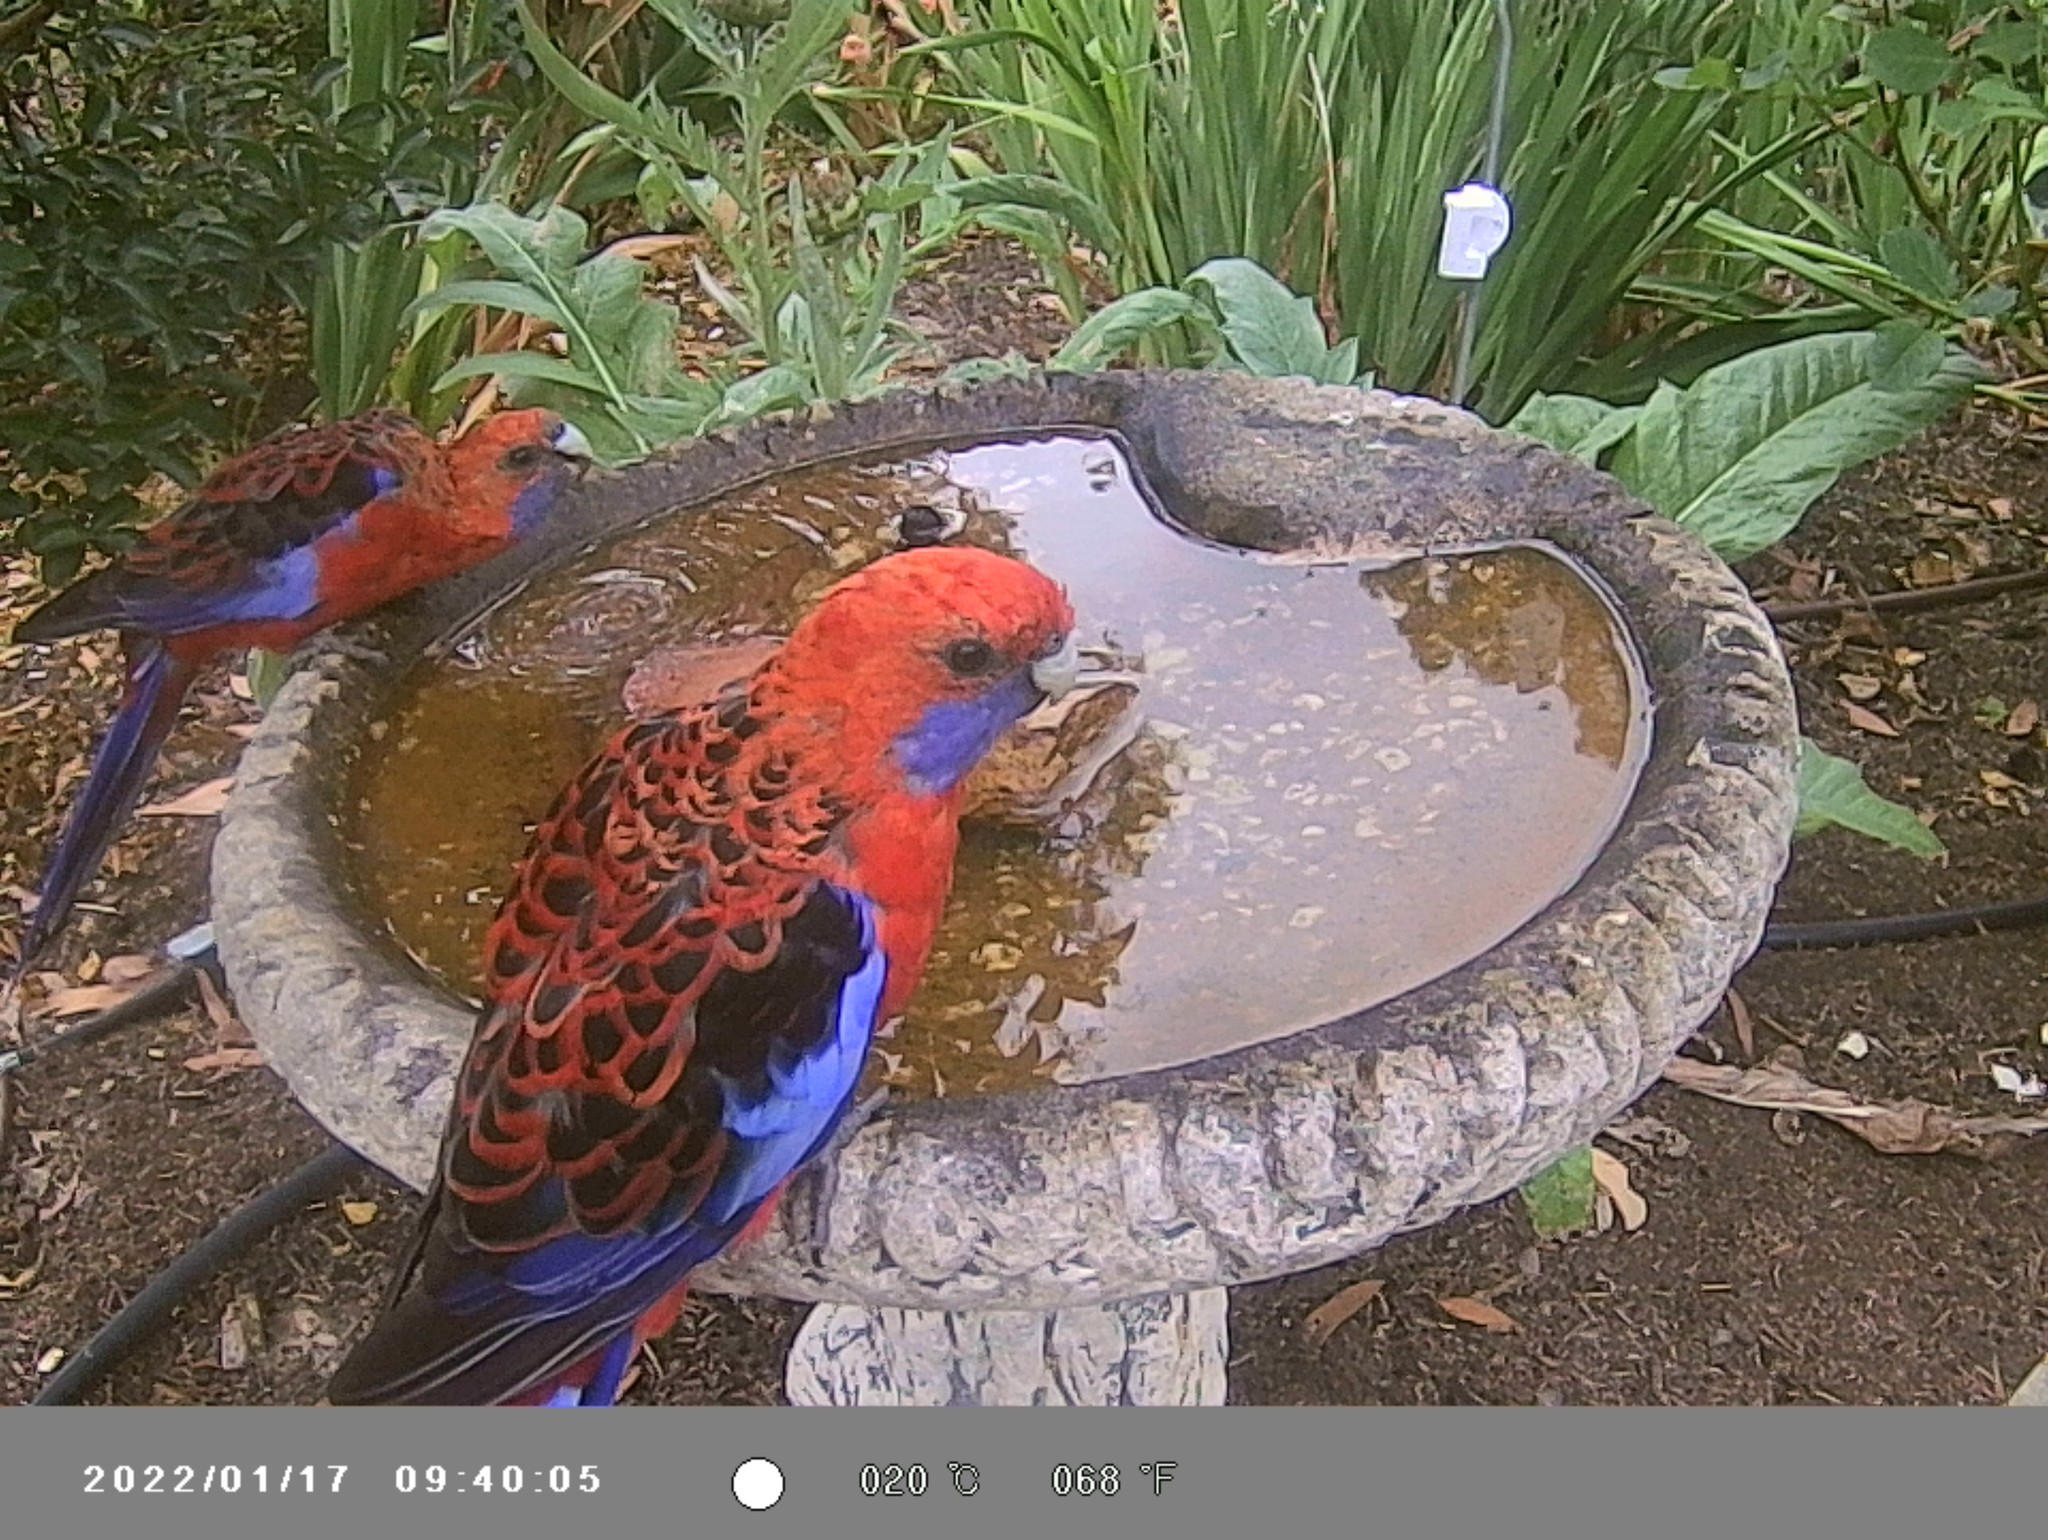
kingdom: Animalia
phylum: Chordata
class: Aves
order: Psittaciformes
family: Psittacidae
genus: Platycercus
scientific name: Platycercus elegans
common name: Crimson rosella
